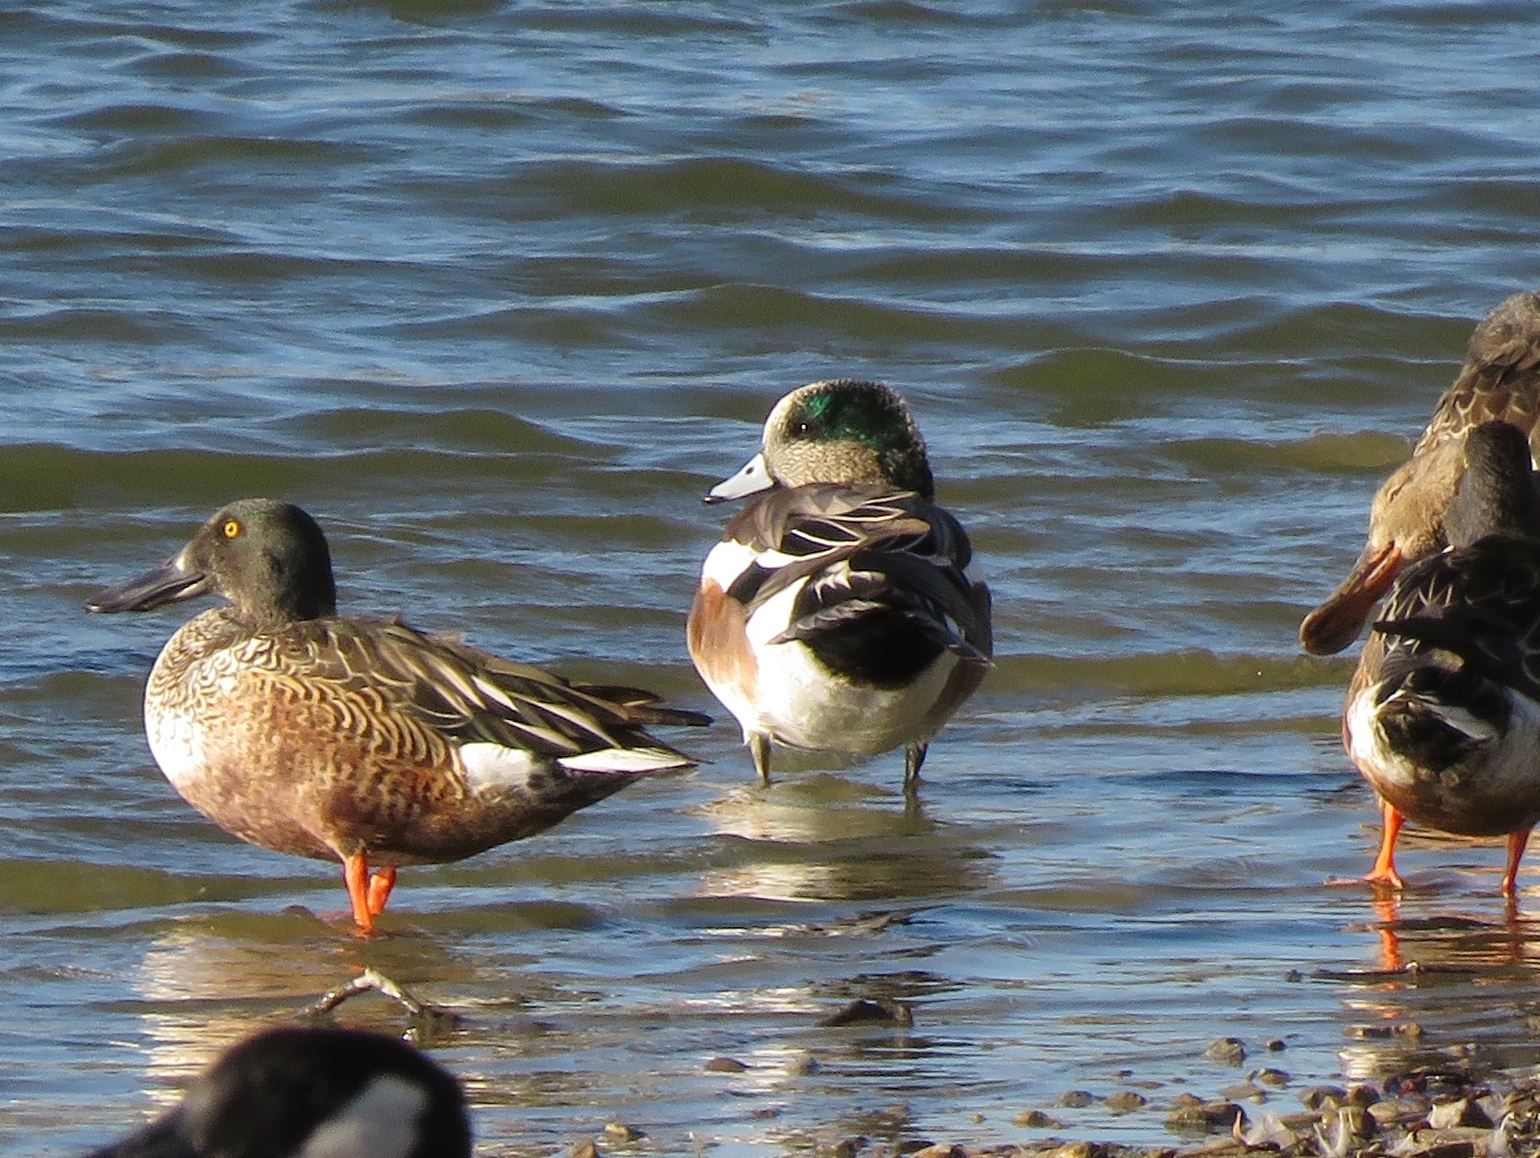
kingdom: Animalia
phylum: Chordata
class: Aves
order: Anseriformes
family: Anatidae
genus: Mareca
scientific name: Mareca americana
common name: American wigeon
